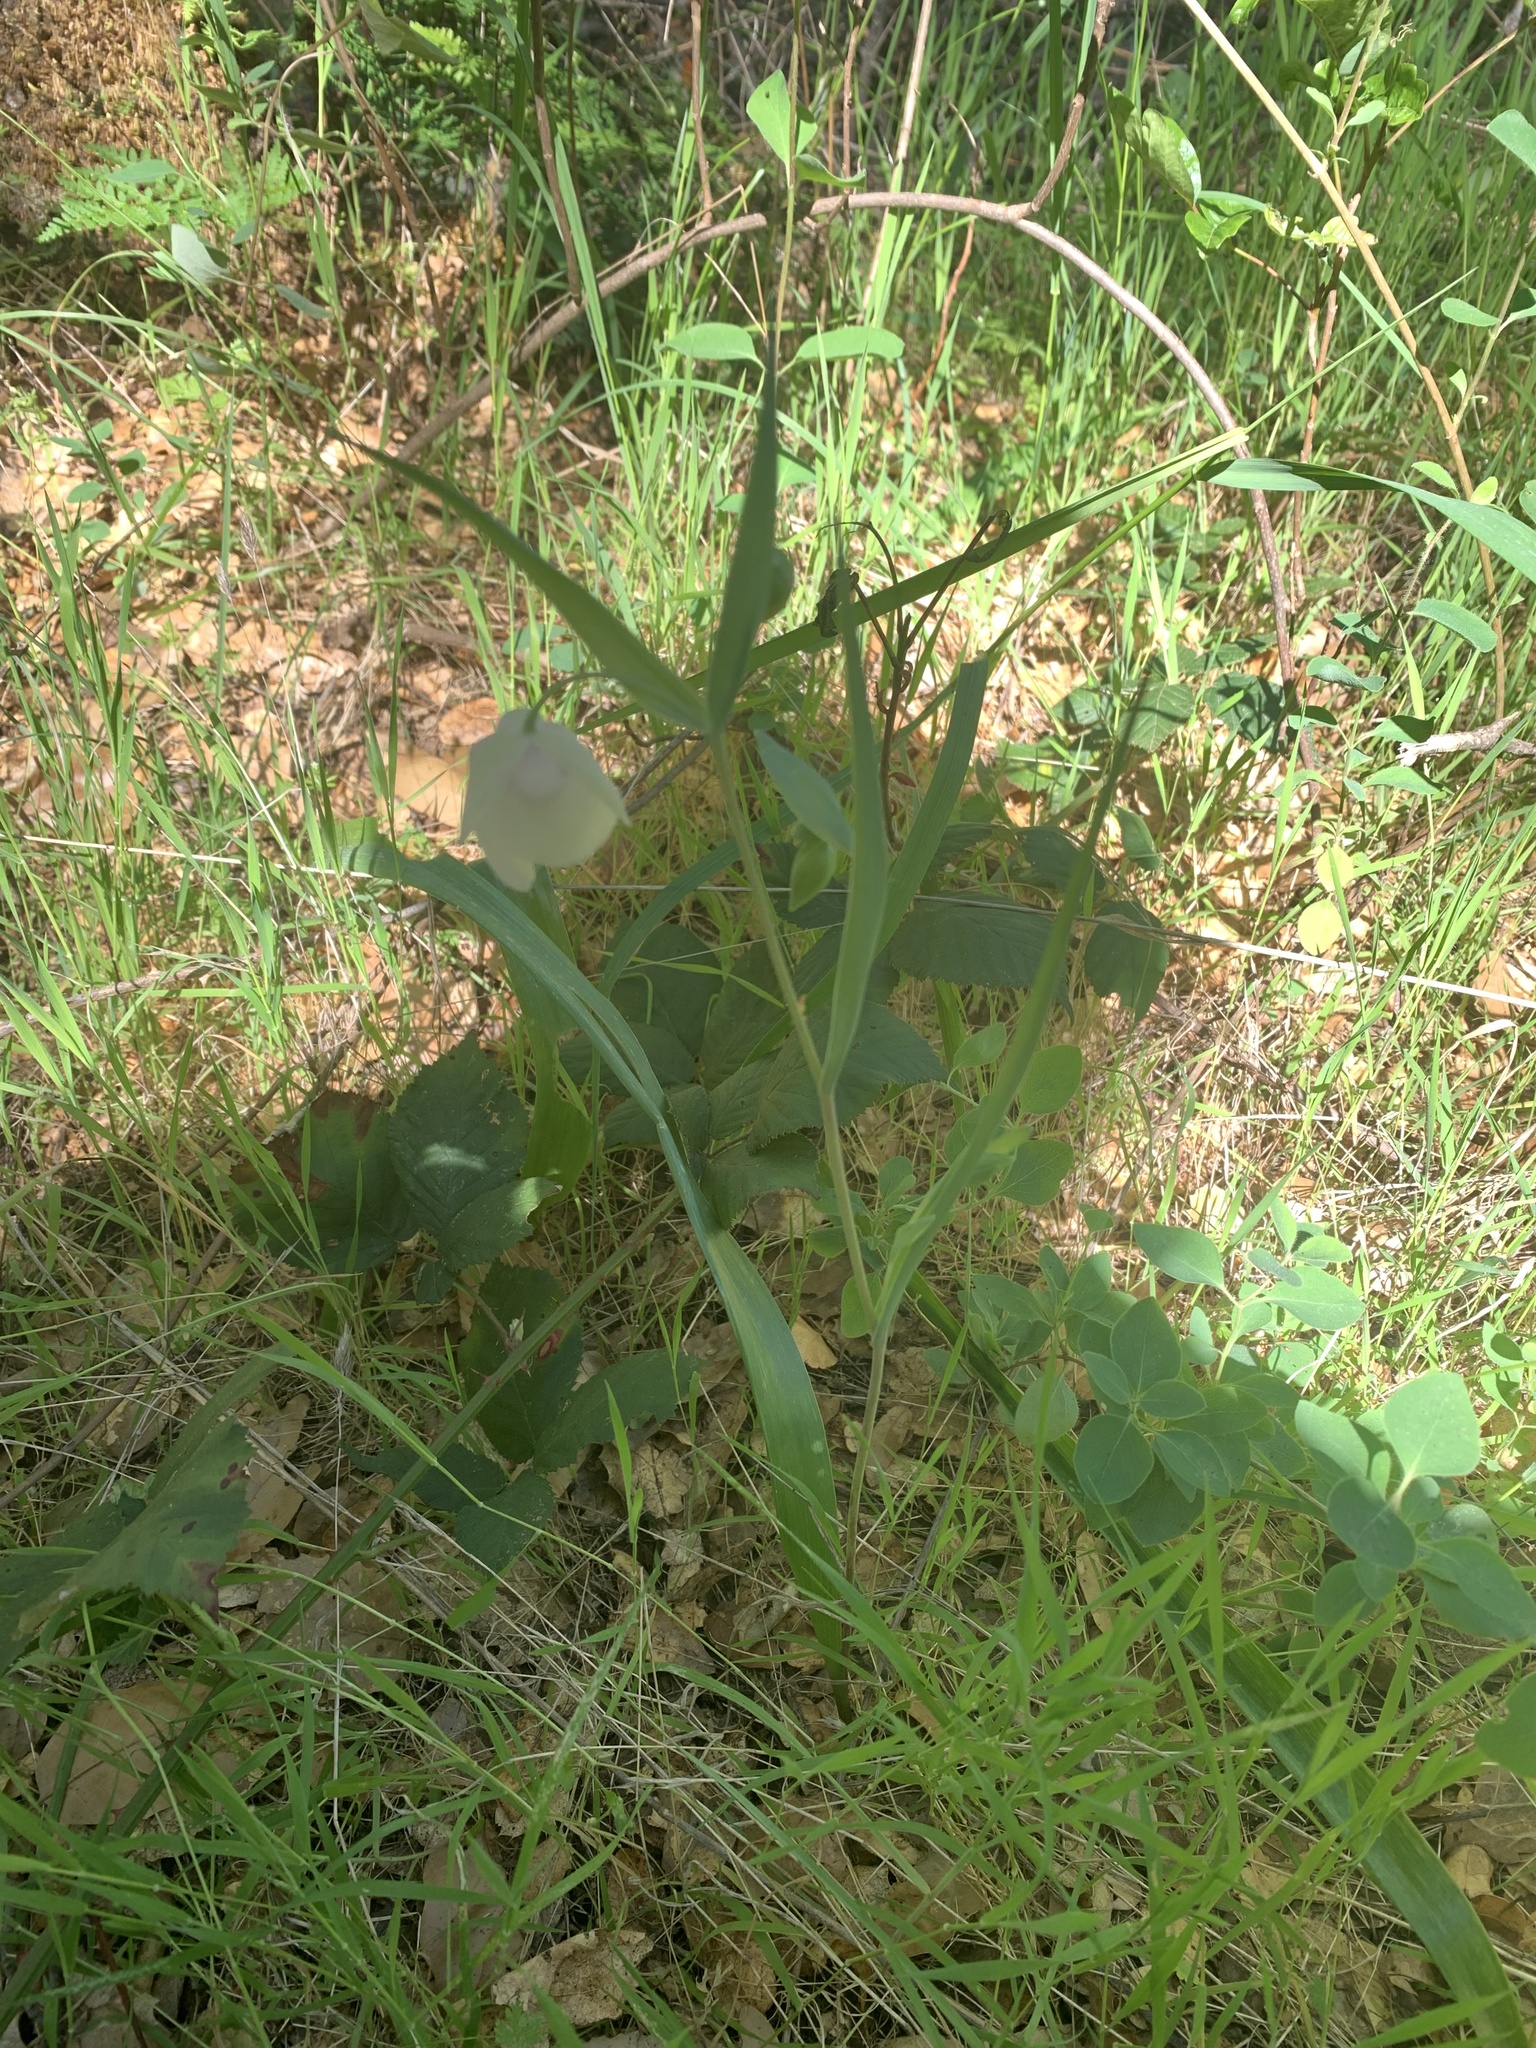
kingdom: Plantae
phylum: Tracheophyta
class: Liliopsida
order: Liliales
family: Liliaceae
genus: Calochortus
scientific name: Calochortus albus
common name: Fairy-lantern
